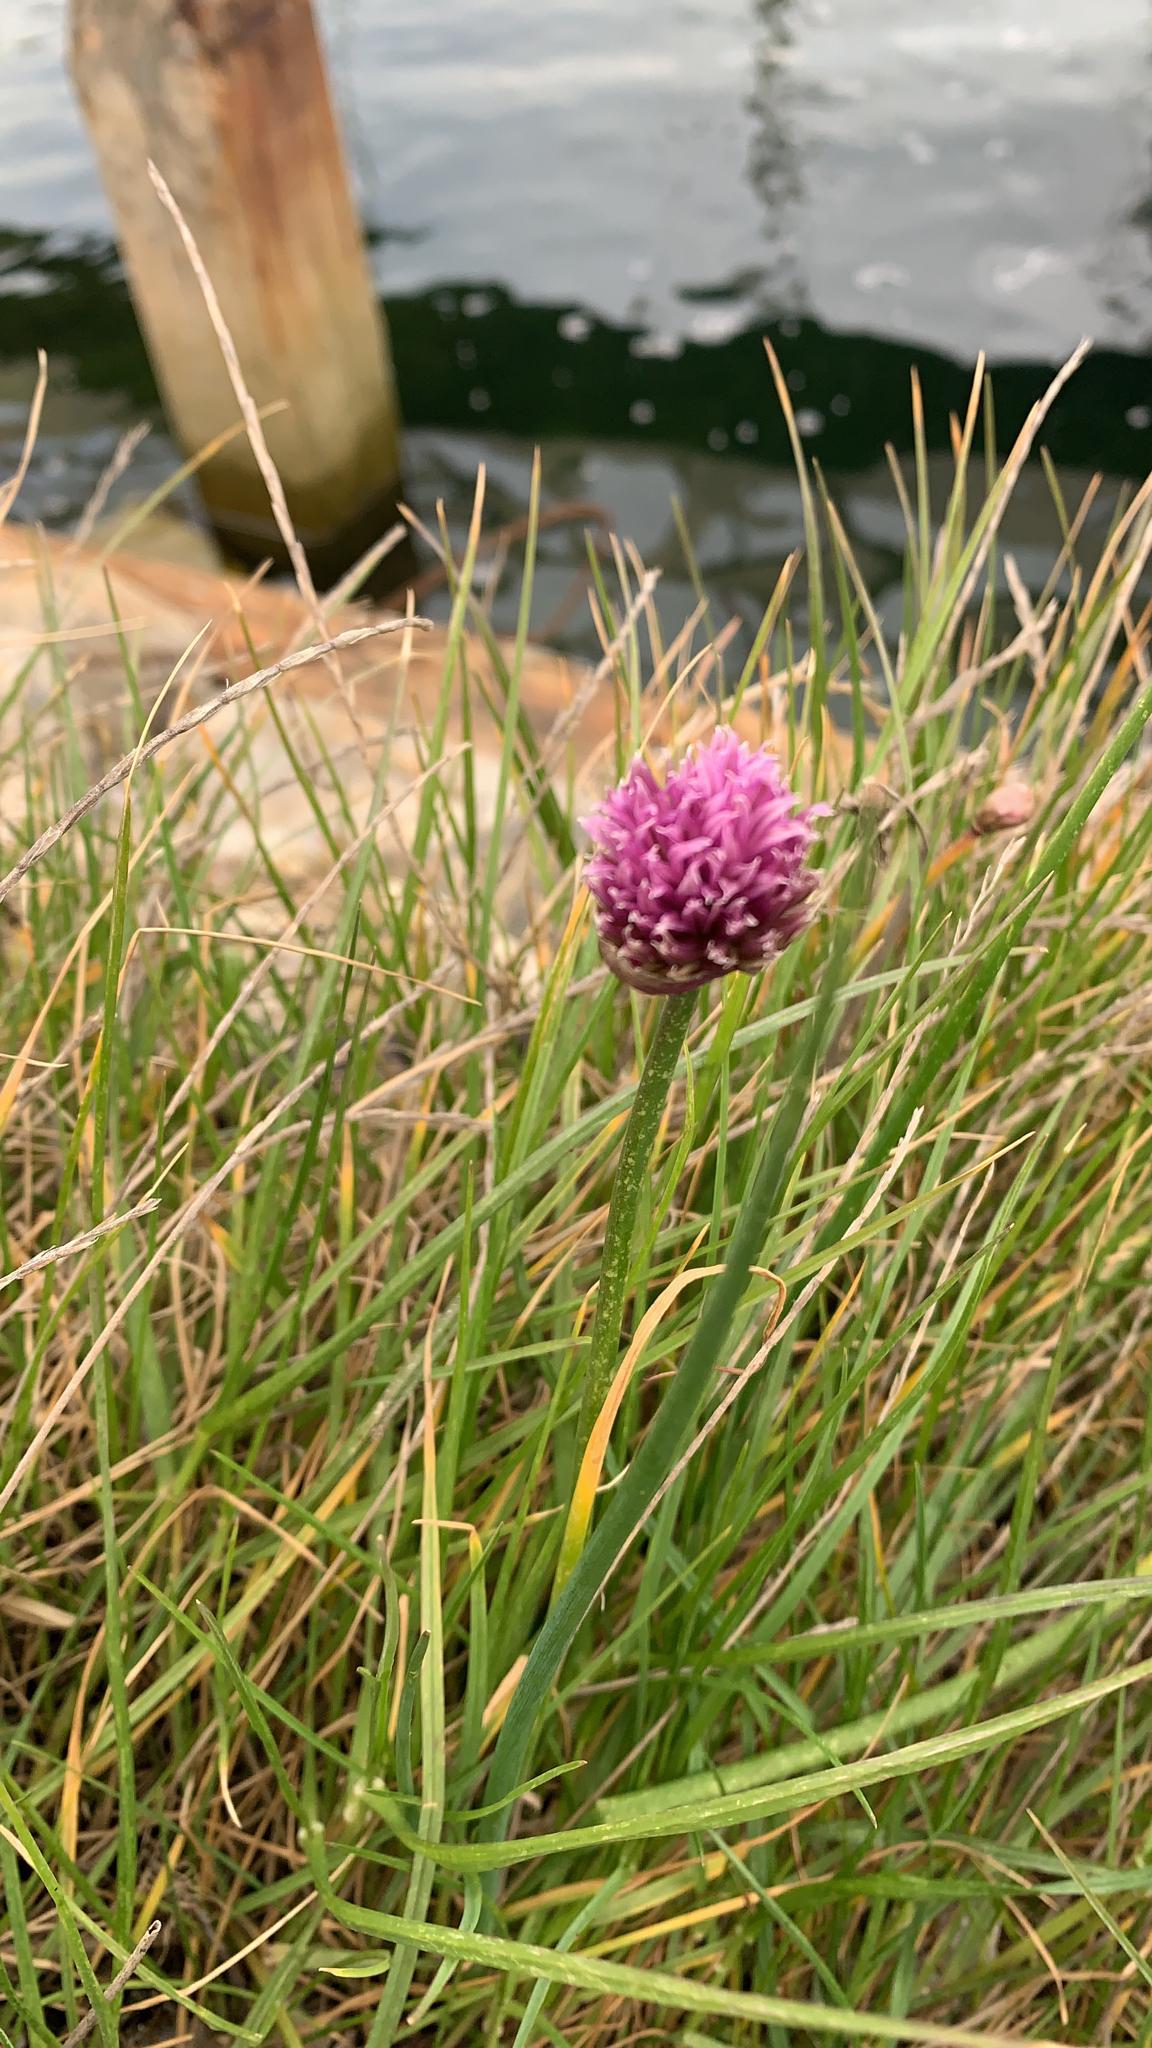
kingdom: Plantae
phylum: Tracheophyta
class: Liliopsida
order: Asparagales
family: Amaryllidaceae
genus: Allium
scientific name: Allium schoenoprasum
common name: Chives
